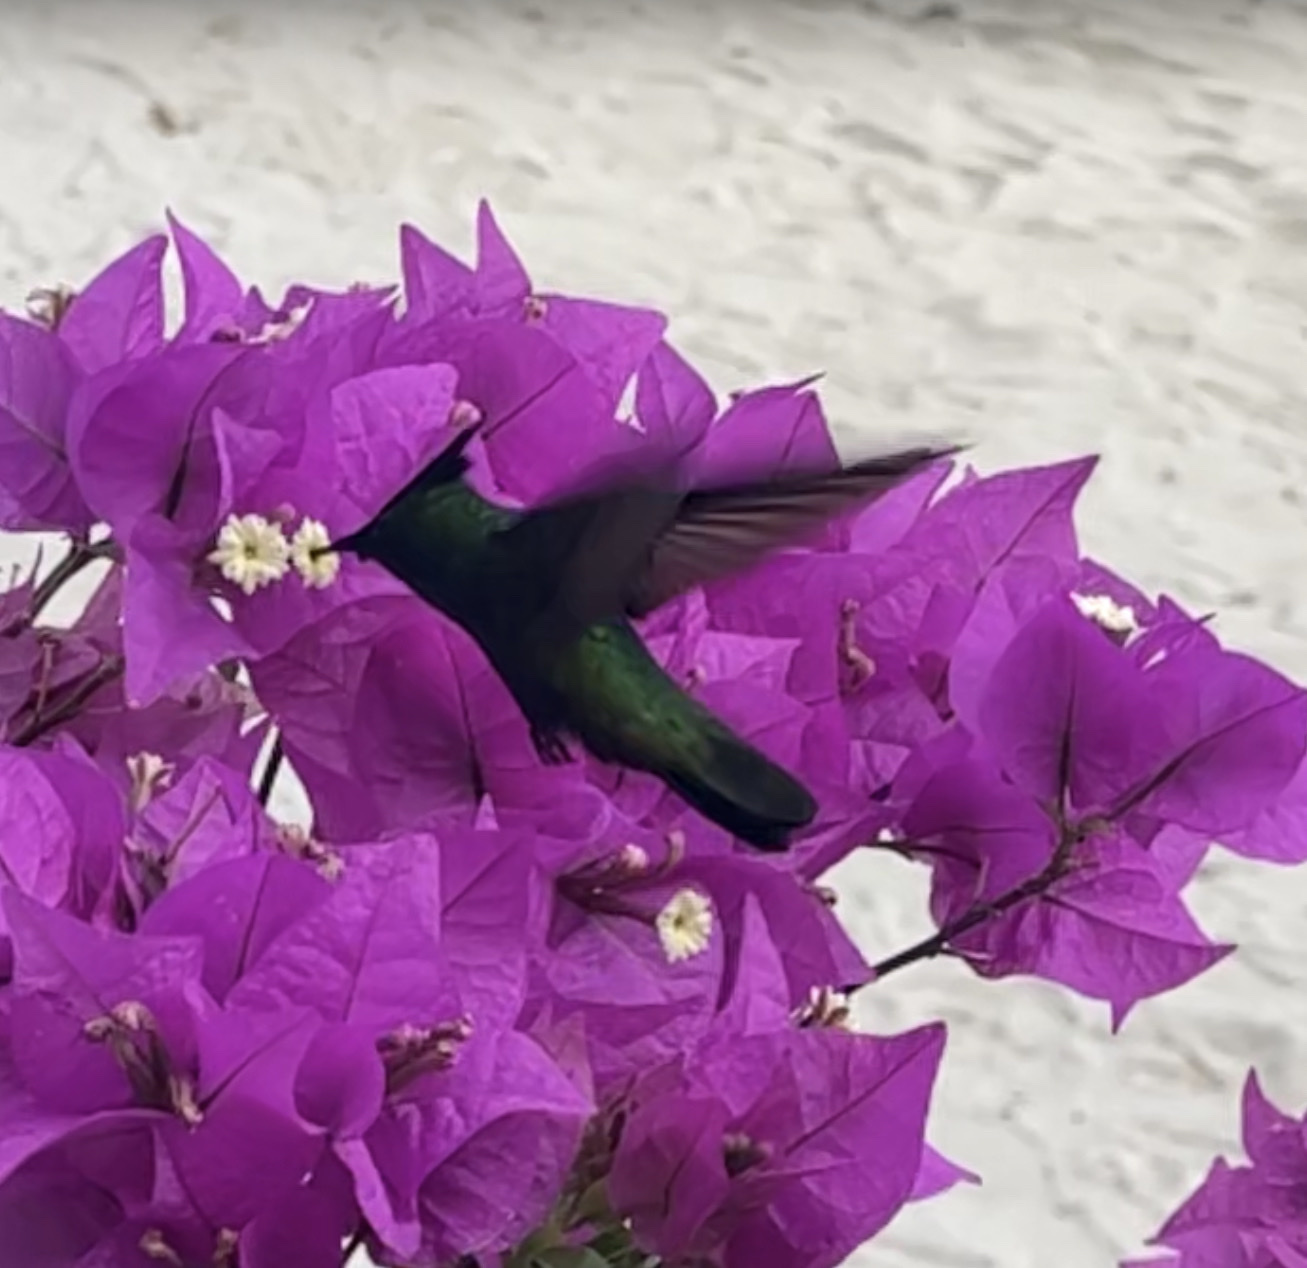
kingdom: Animalia
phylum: Chordata
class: Aves
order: Apodiformes
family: Trochilidae
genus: Orthorhyncus
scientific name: Orthorhyncus cristatus
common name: Antillean crested hummingbird
